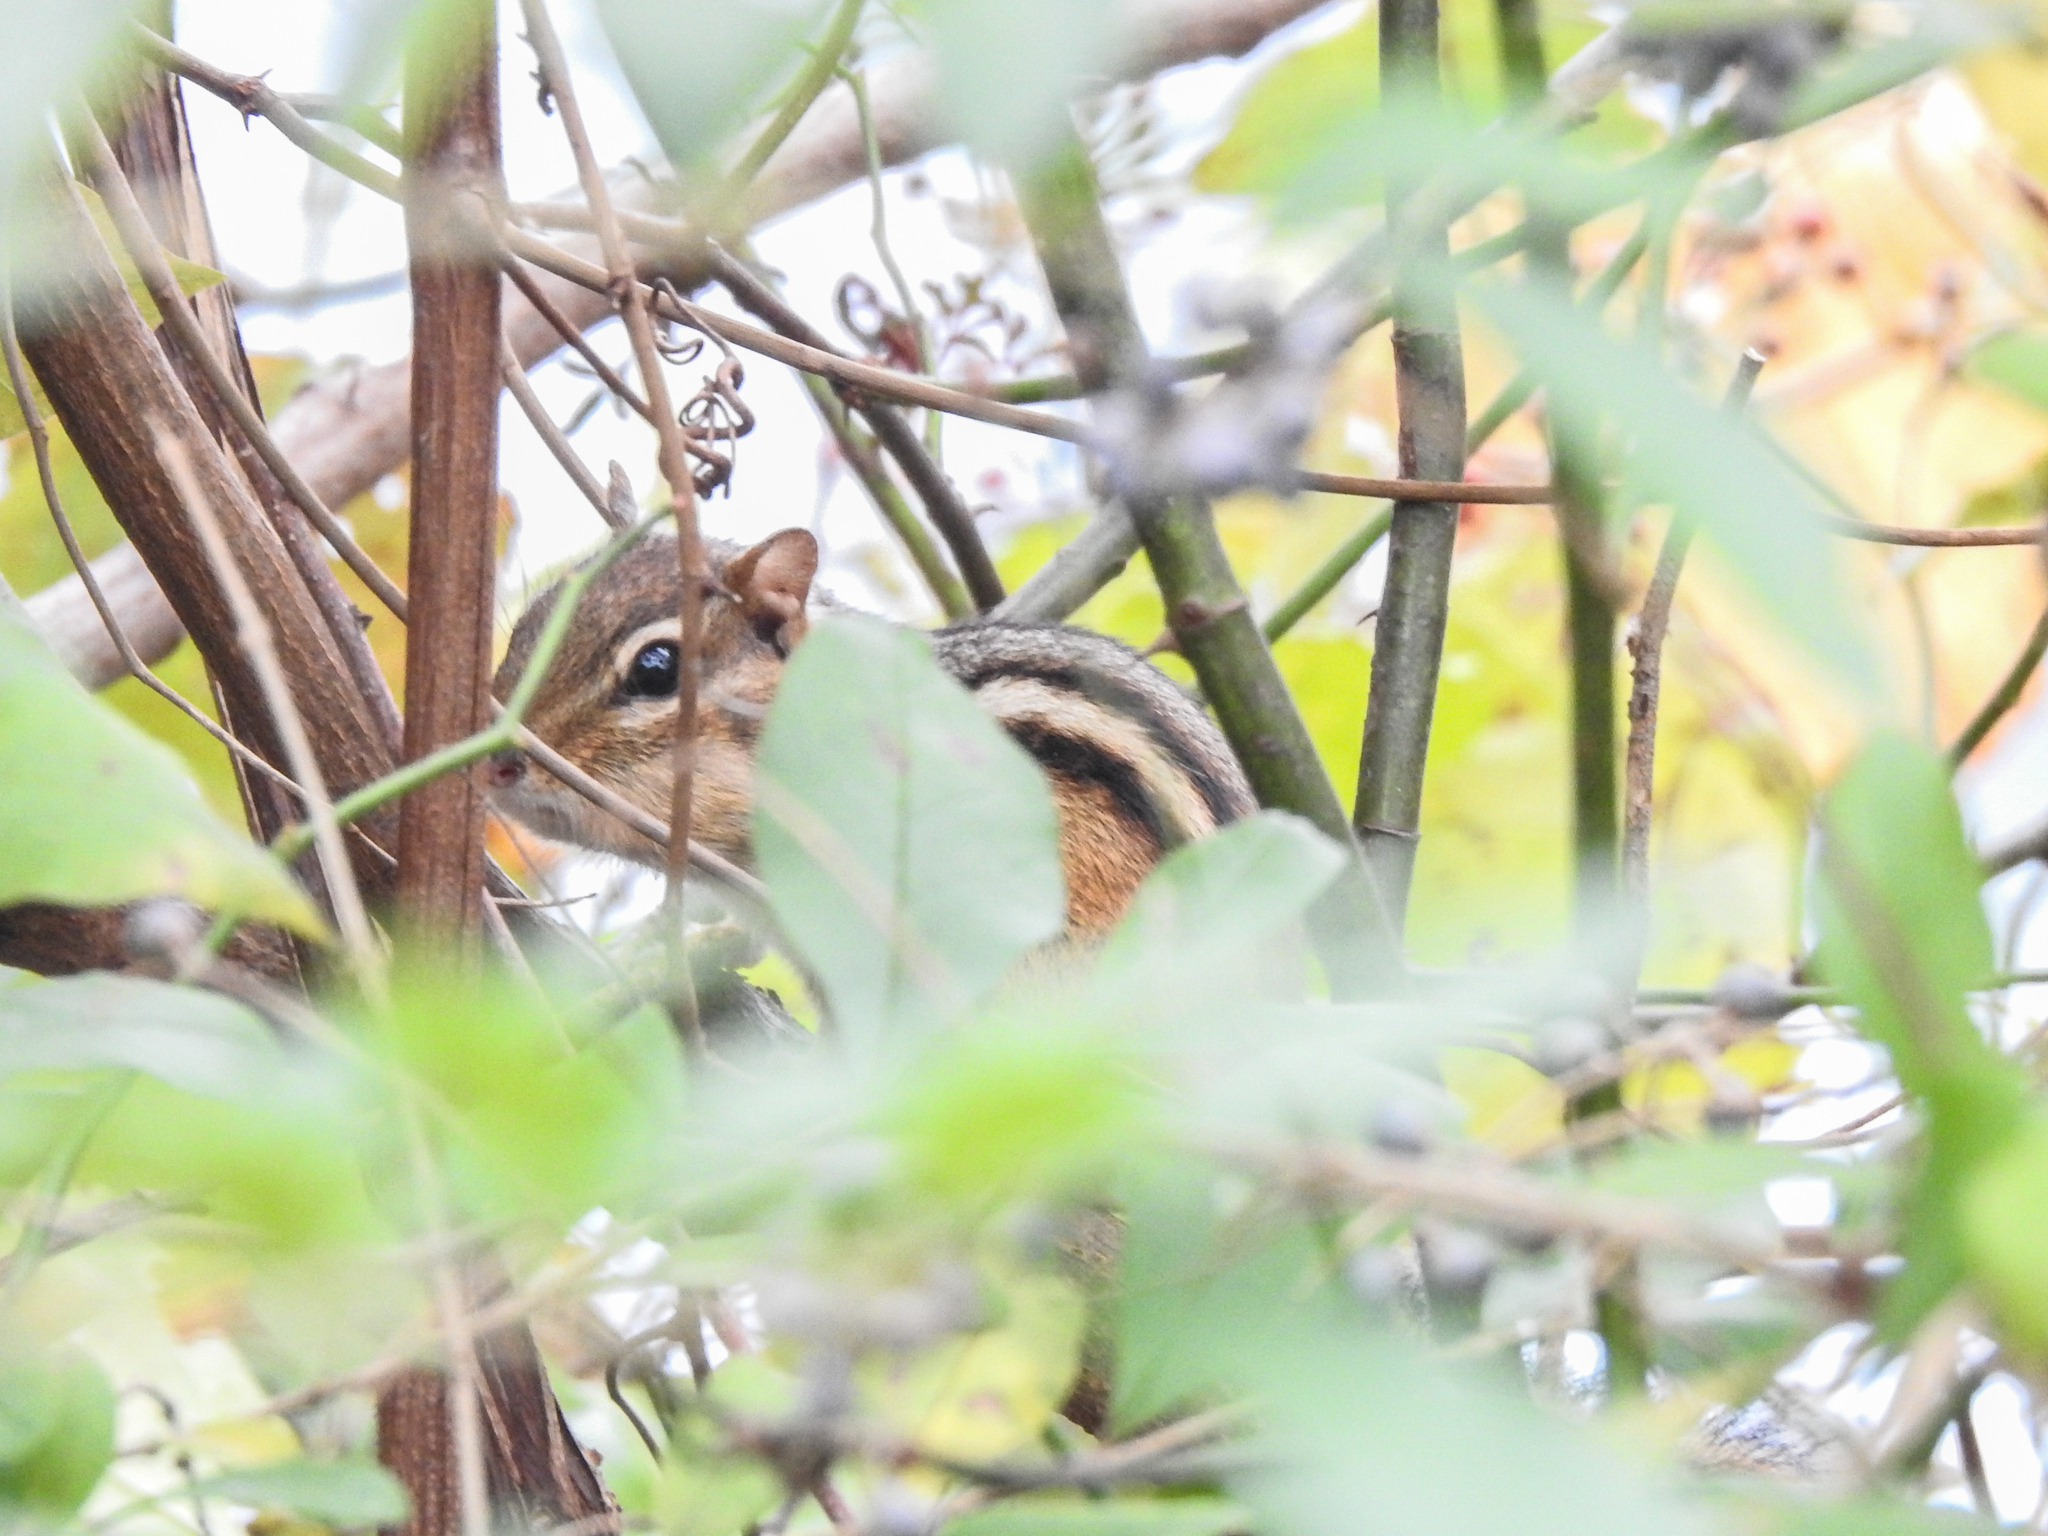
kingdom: Animalia
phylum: Chordata
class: Mammalia
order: Rodentia
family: Sciuridae
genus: Tamias
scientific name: Tamias striatus
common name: Eastern chipmunk
